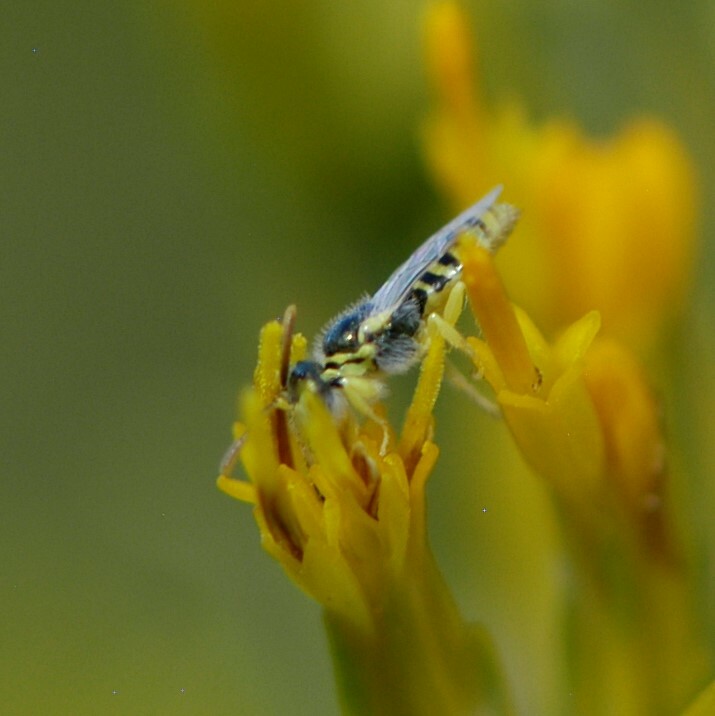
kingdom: Animalia
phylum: Arthropoda
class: Insecta
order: Hymenoptera
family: Andrenidae
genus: Perdita
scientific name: Perdita
